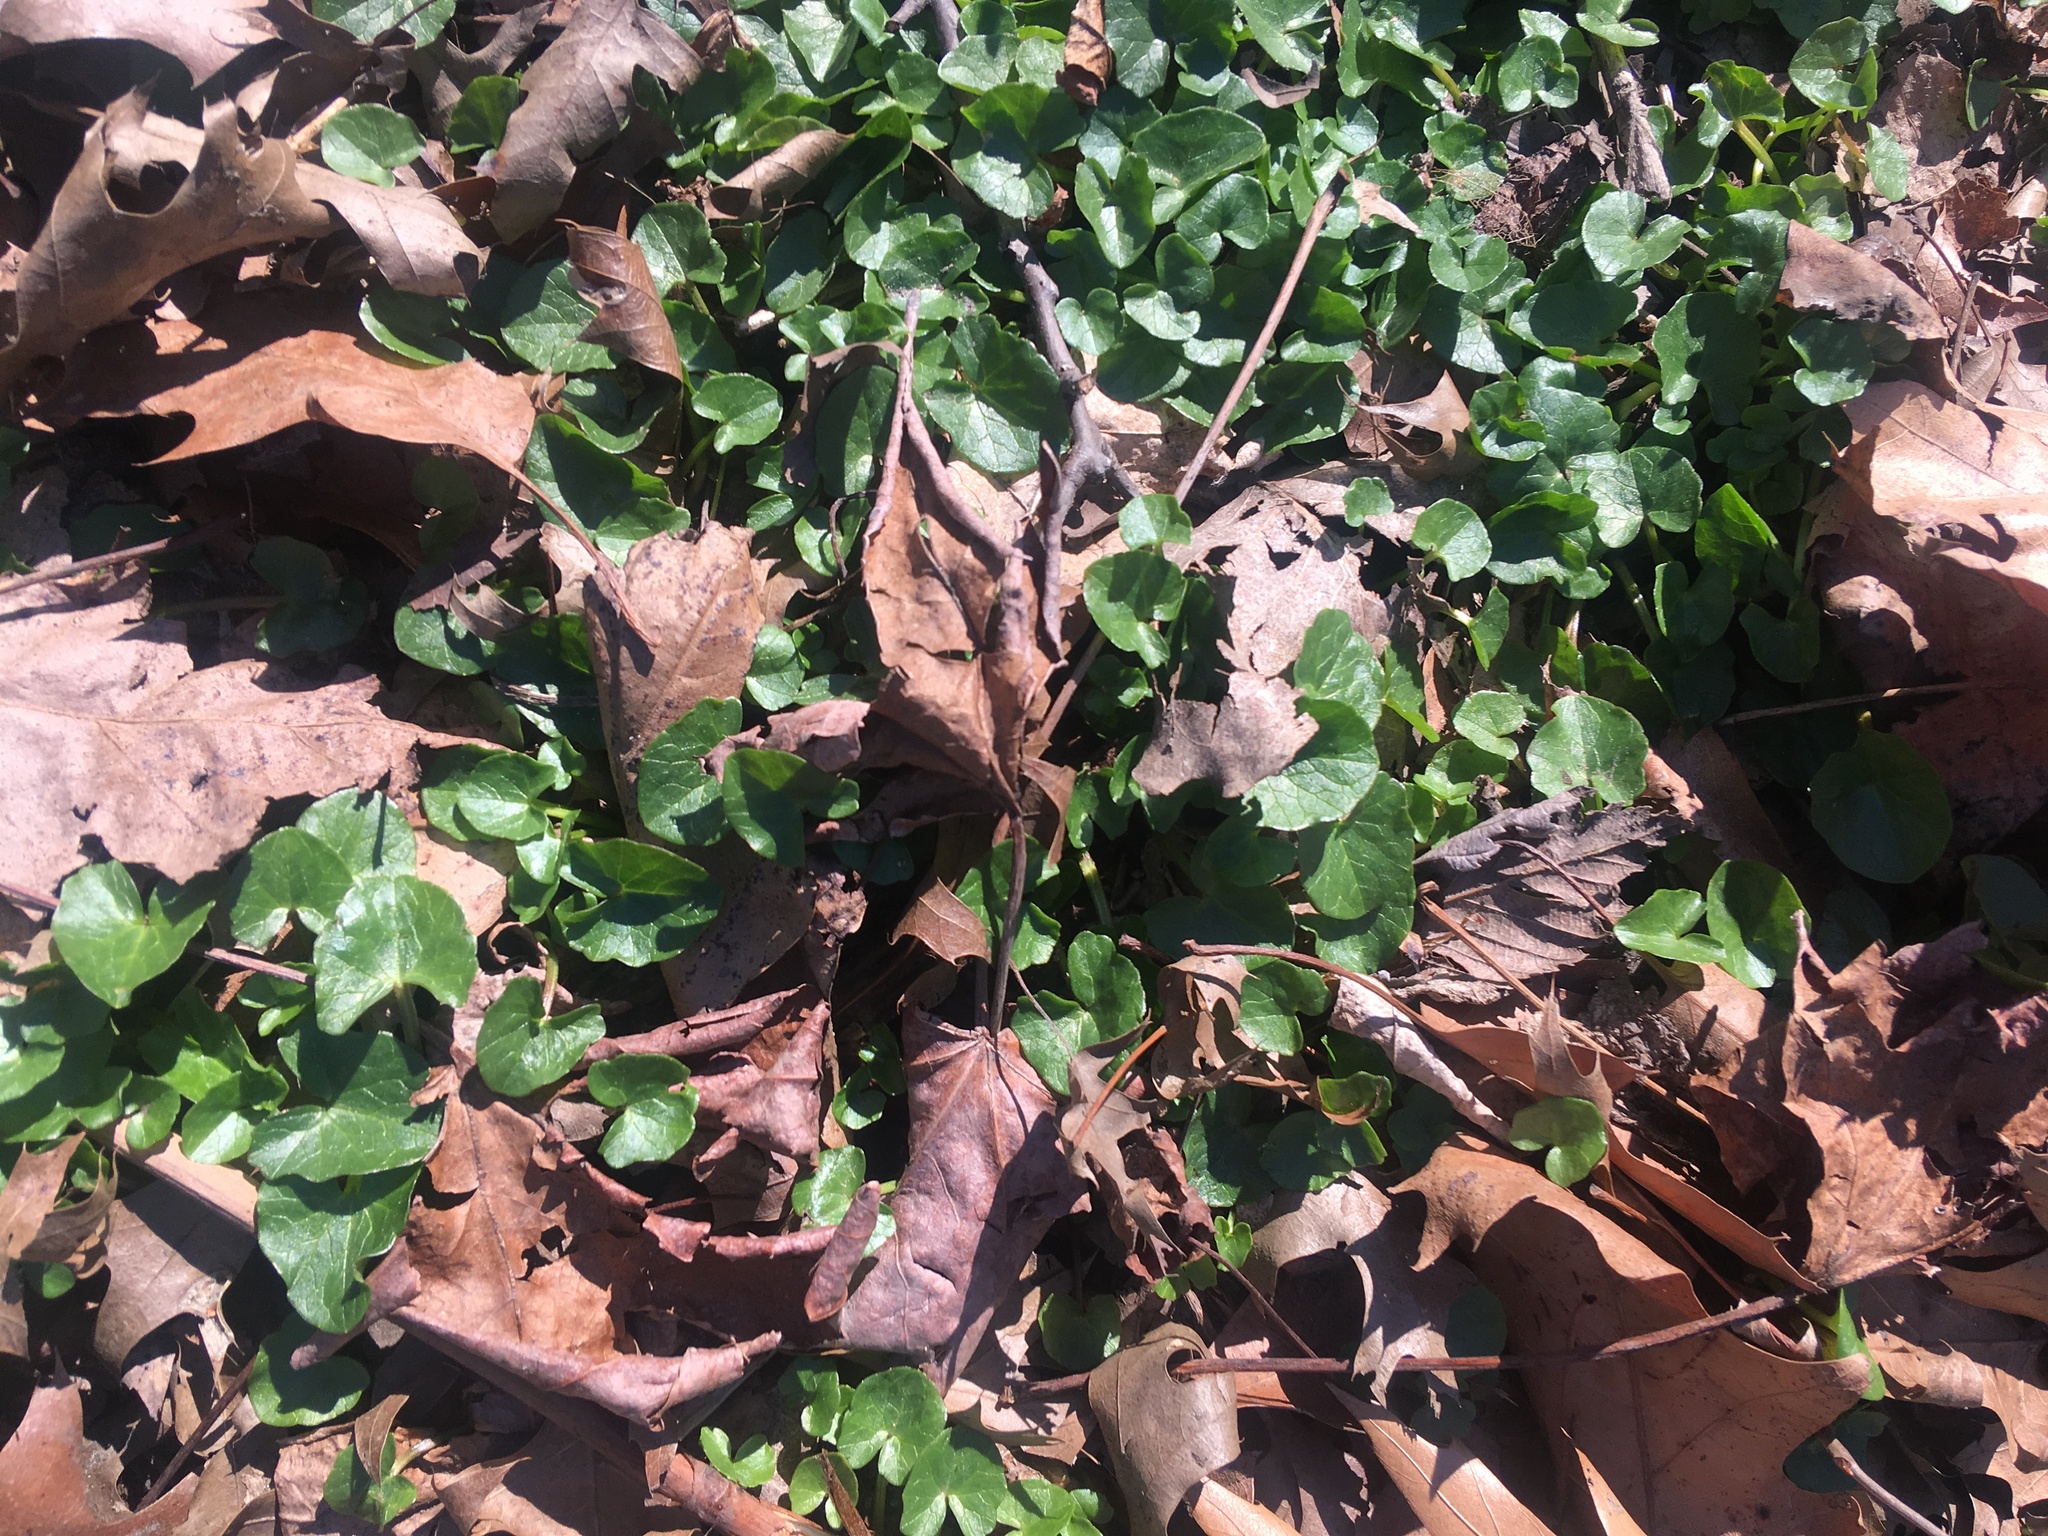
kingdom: Plantae
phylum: Tracheophyta
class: Magnoliopsida
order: Ranunculales
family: Ranunculaceae
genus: Ficaria
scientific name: Ficaria verna
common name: Lesser celandine
